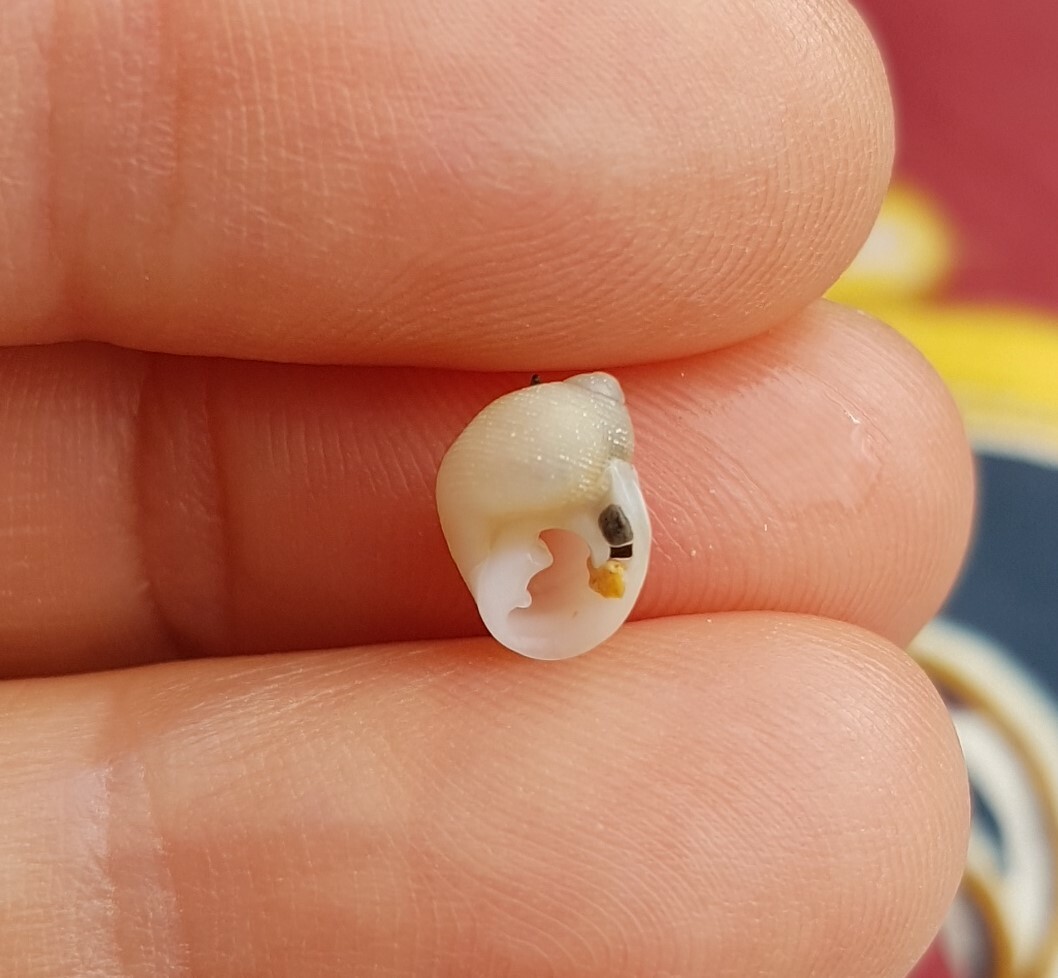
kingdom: Animalia
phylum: Mollusca
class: Gastropoda
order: Ellobiida
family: Ellobiidae
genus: Pedipes
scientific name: Pedipes pedipes
